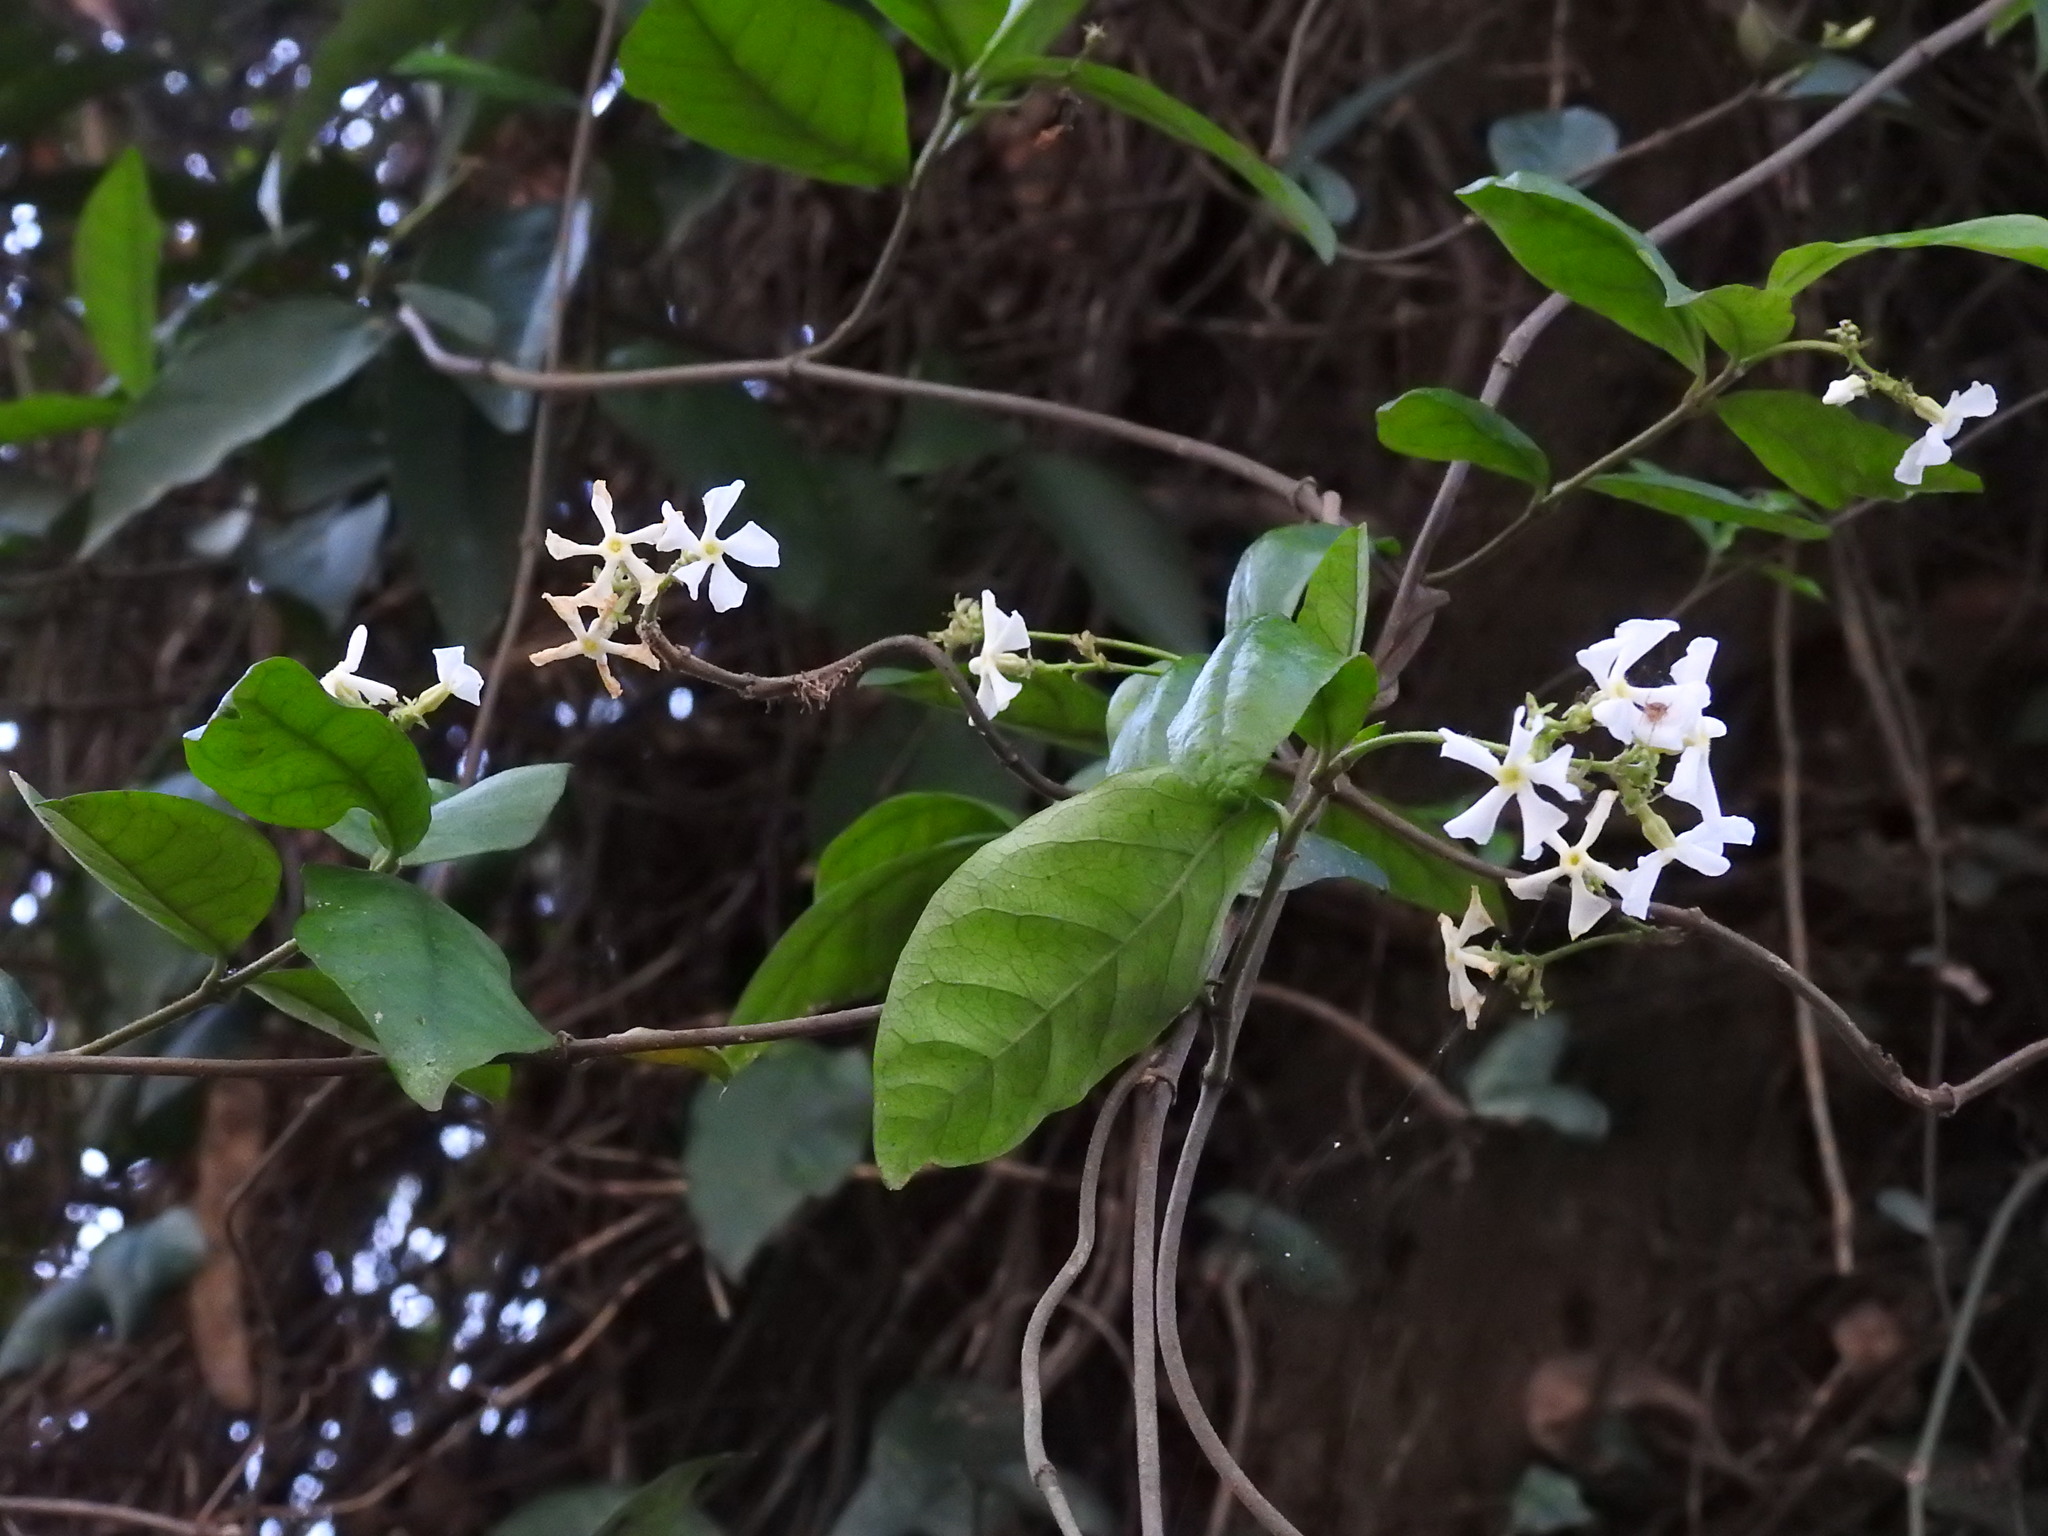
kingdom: Plantae
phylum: Tracheophyta
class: Magnoliopsida
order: Gentianales
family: Apocynaceae
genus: Trachelospermum
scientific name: Trachelospermum jasminoides
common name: Confederate jasmine
